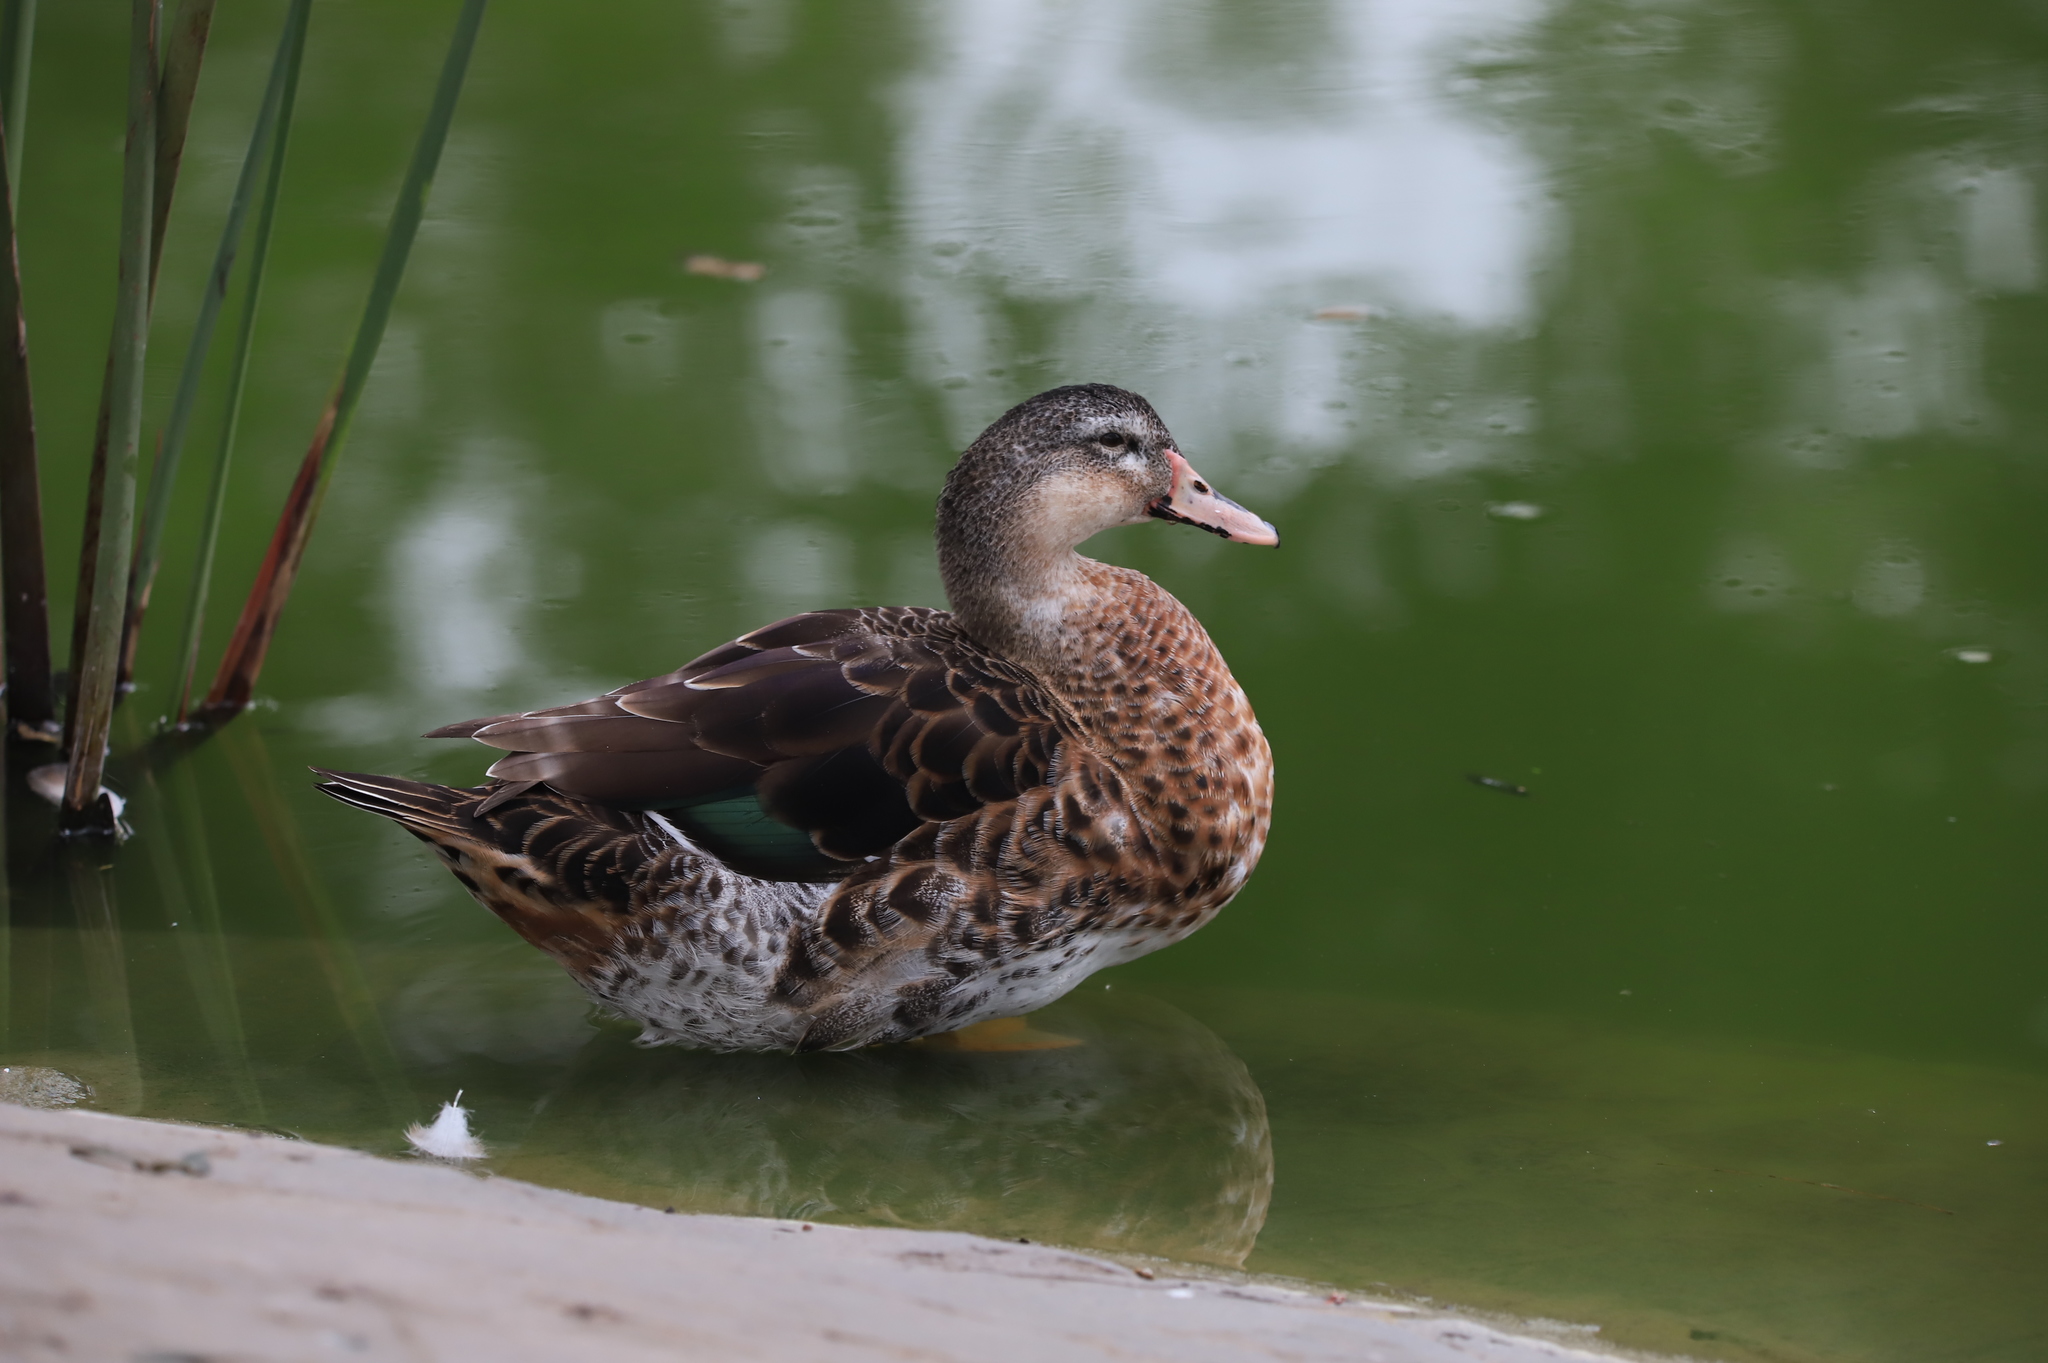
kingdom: Animalia
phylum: Chordata
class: Aves
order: Anseriformes
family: Anatidae
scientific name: Anatidae
